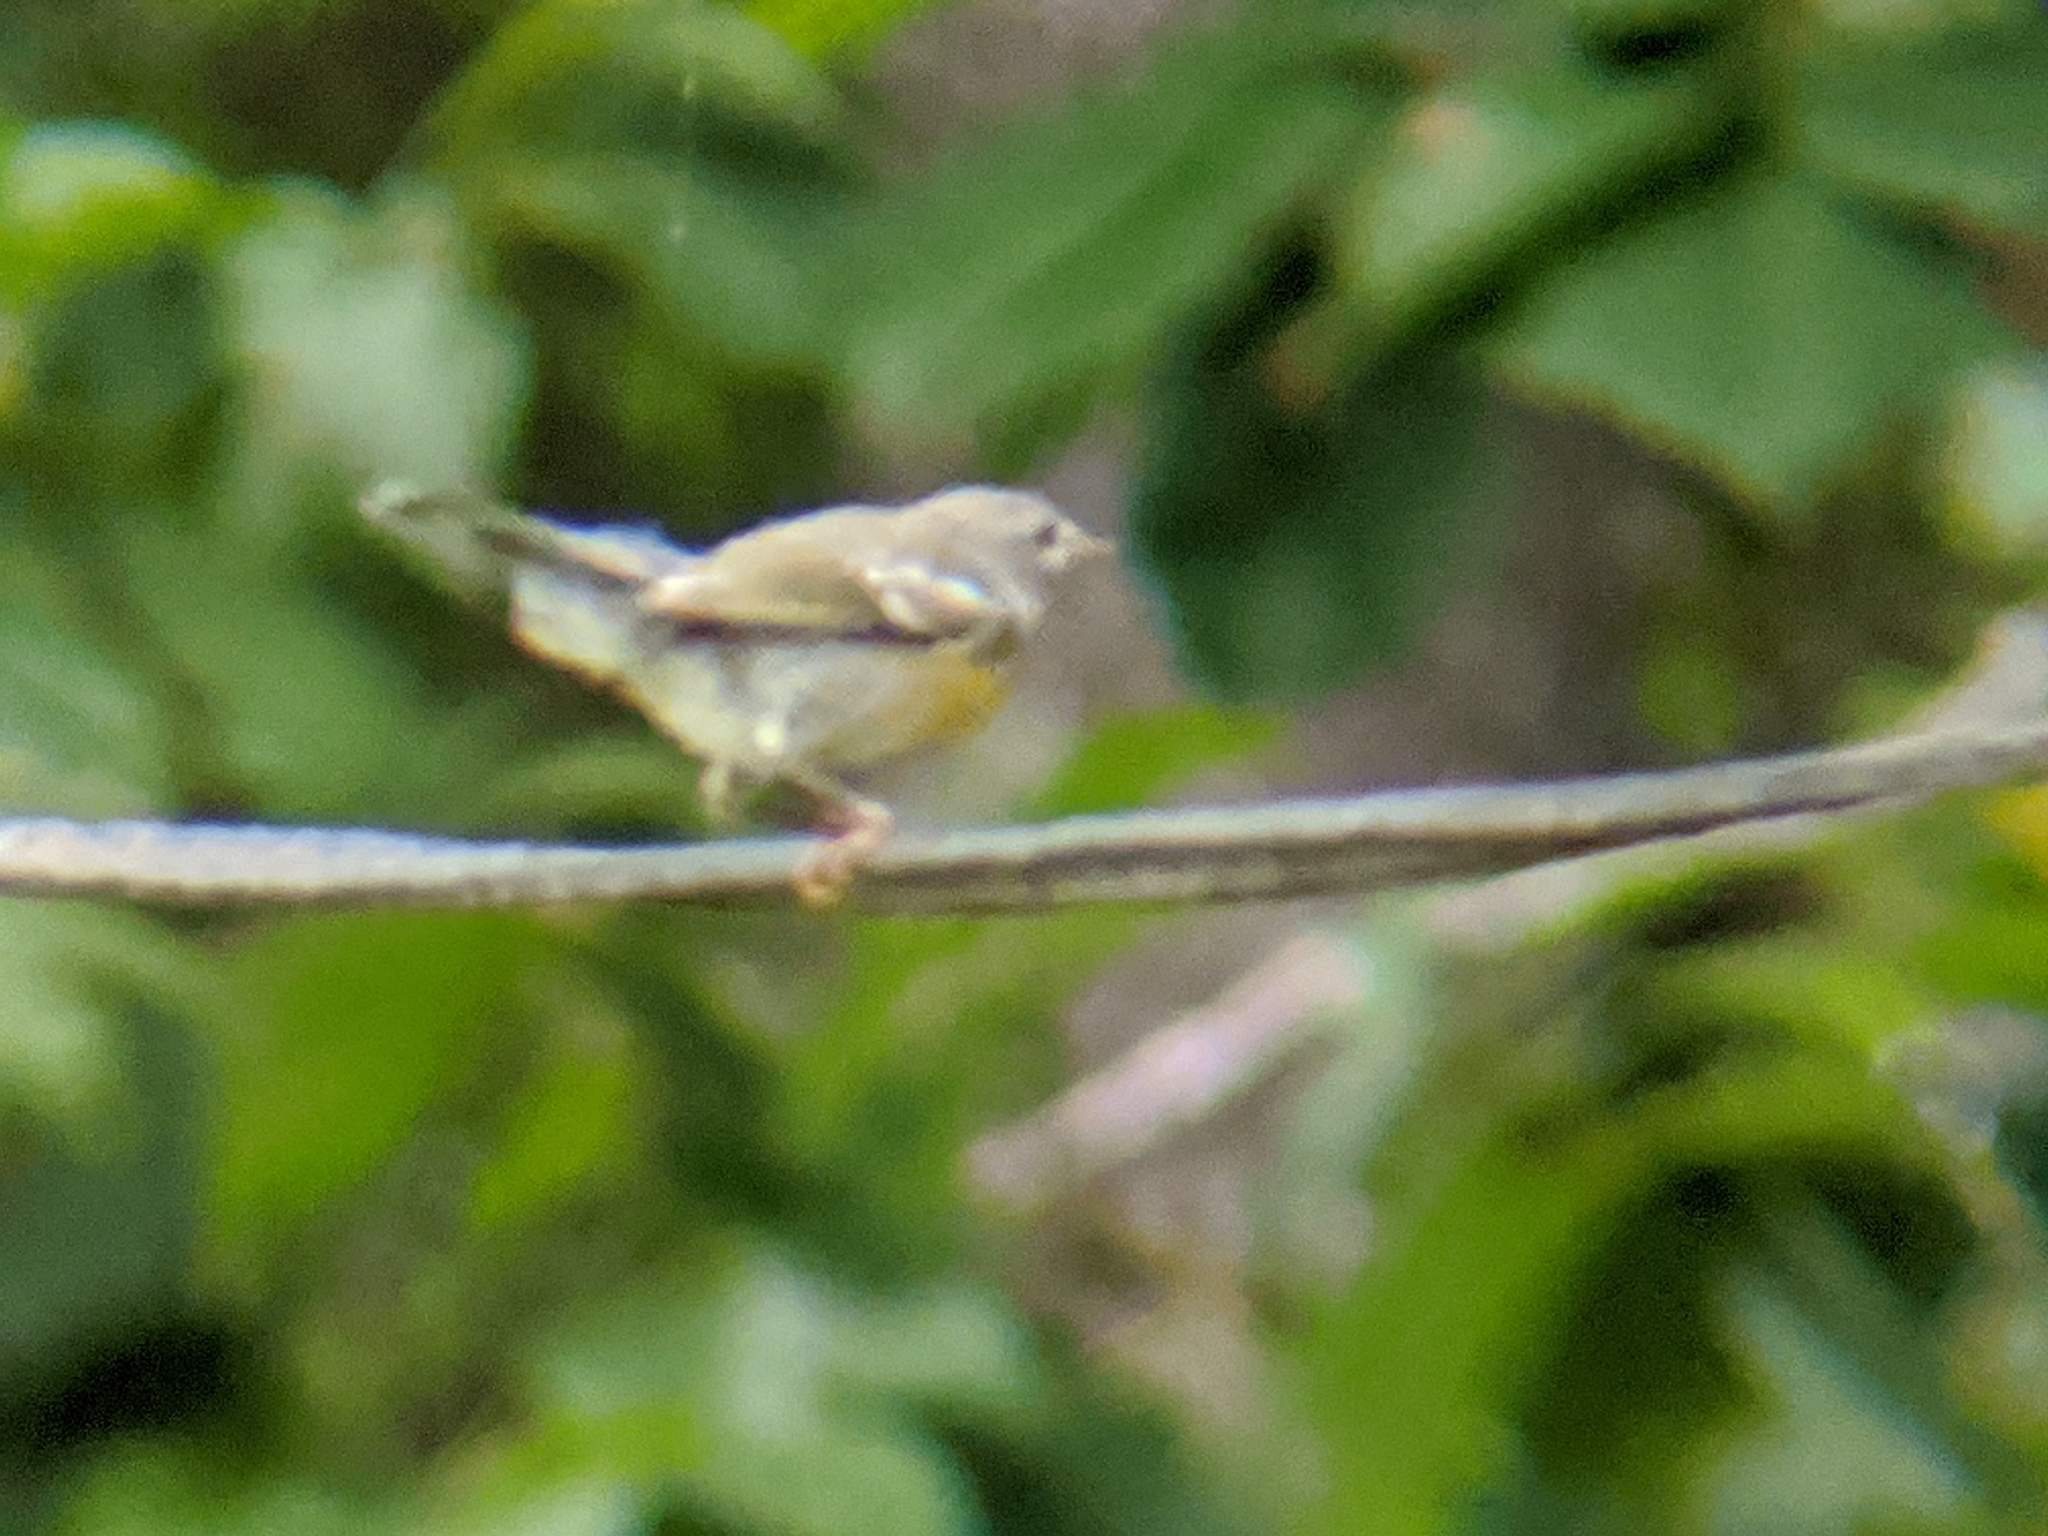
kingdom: Animalia
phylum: Chordata
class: Aves
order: Passeriformes
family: Parulidae
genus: Setophaga
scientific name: Setophaga americana
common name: Northern parula
